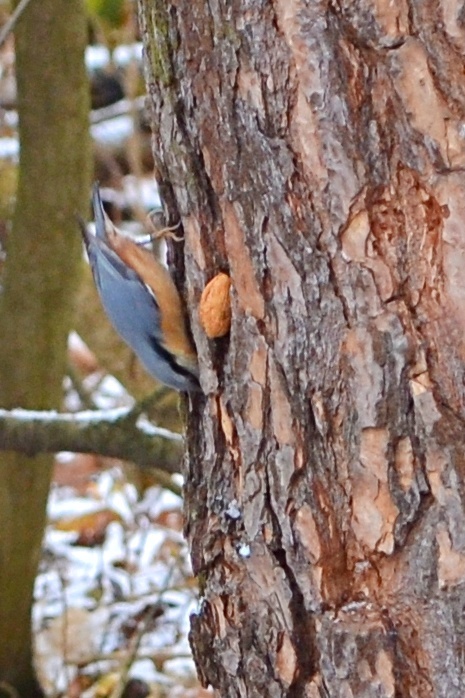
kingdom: Animalia
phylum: Chordata
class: Aves
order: Passeriformes
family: Sittidae
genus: Sitta
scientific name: Sitta europaea
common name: Eurasian nuthatch
